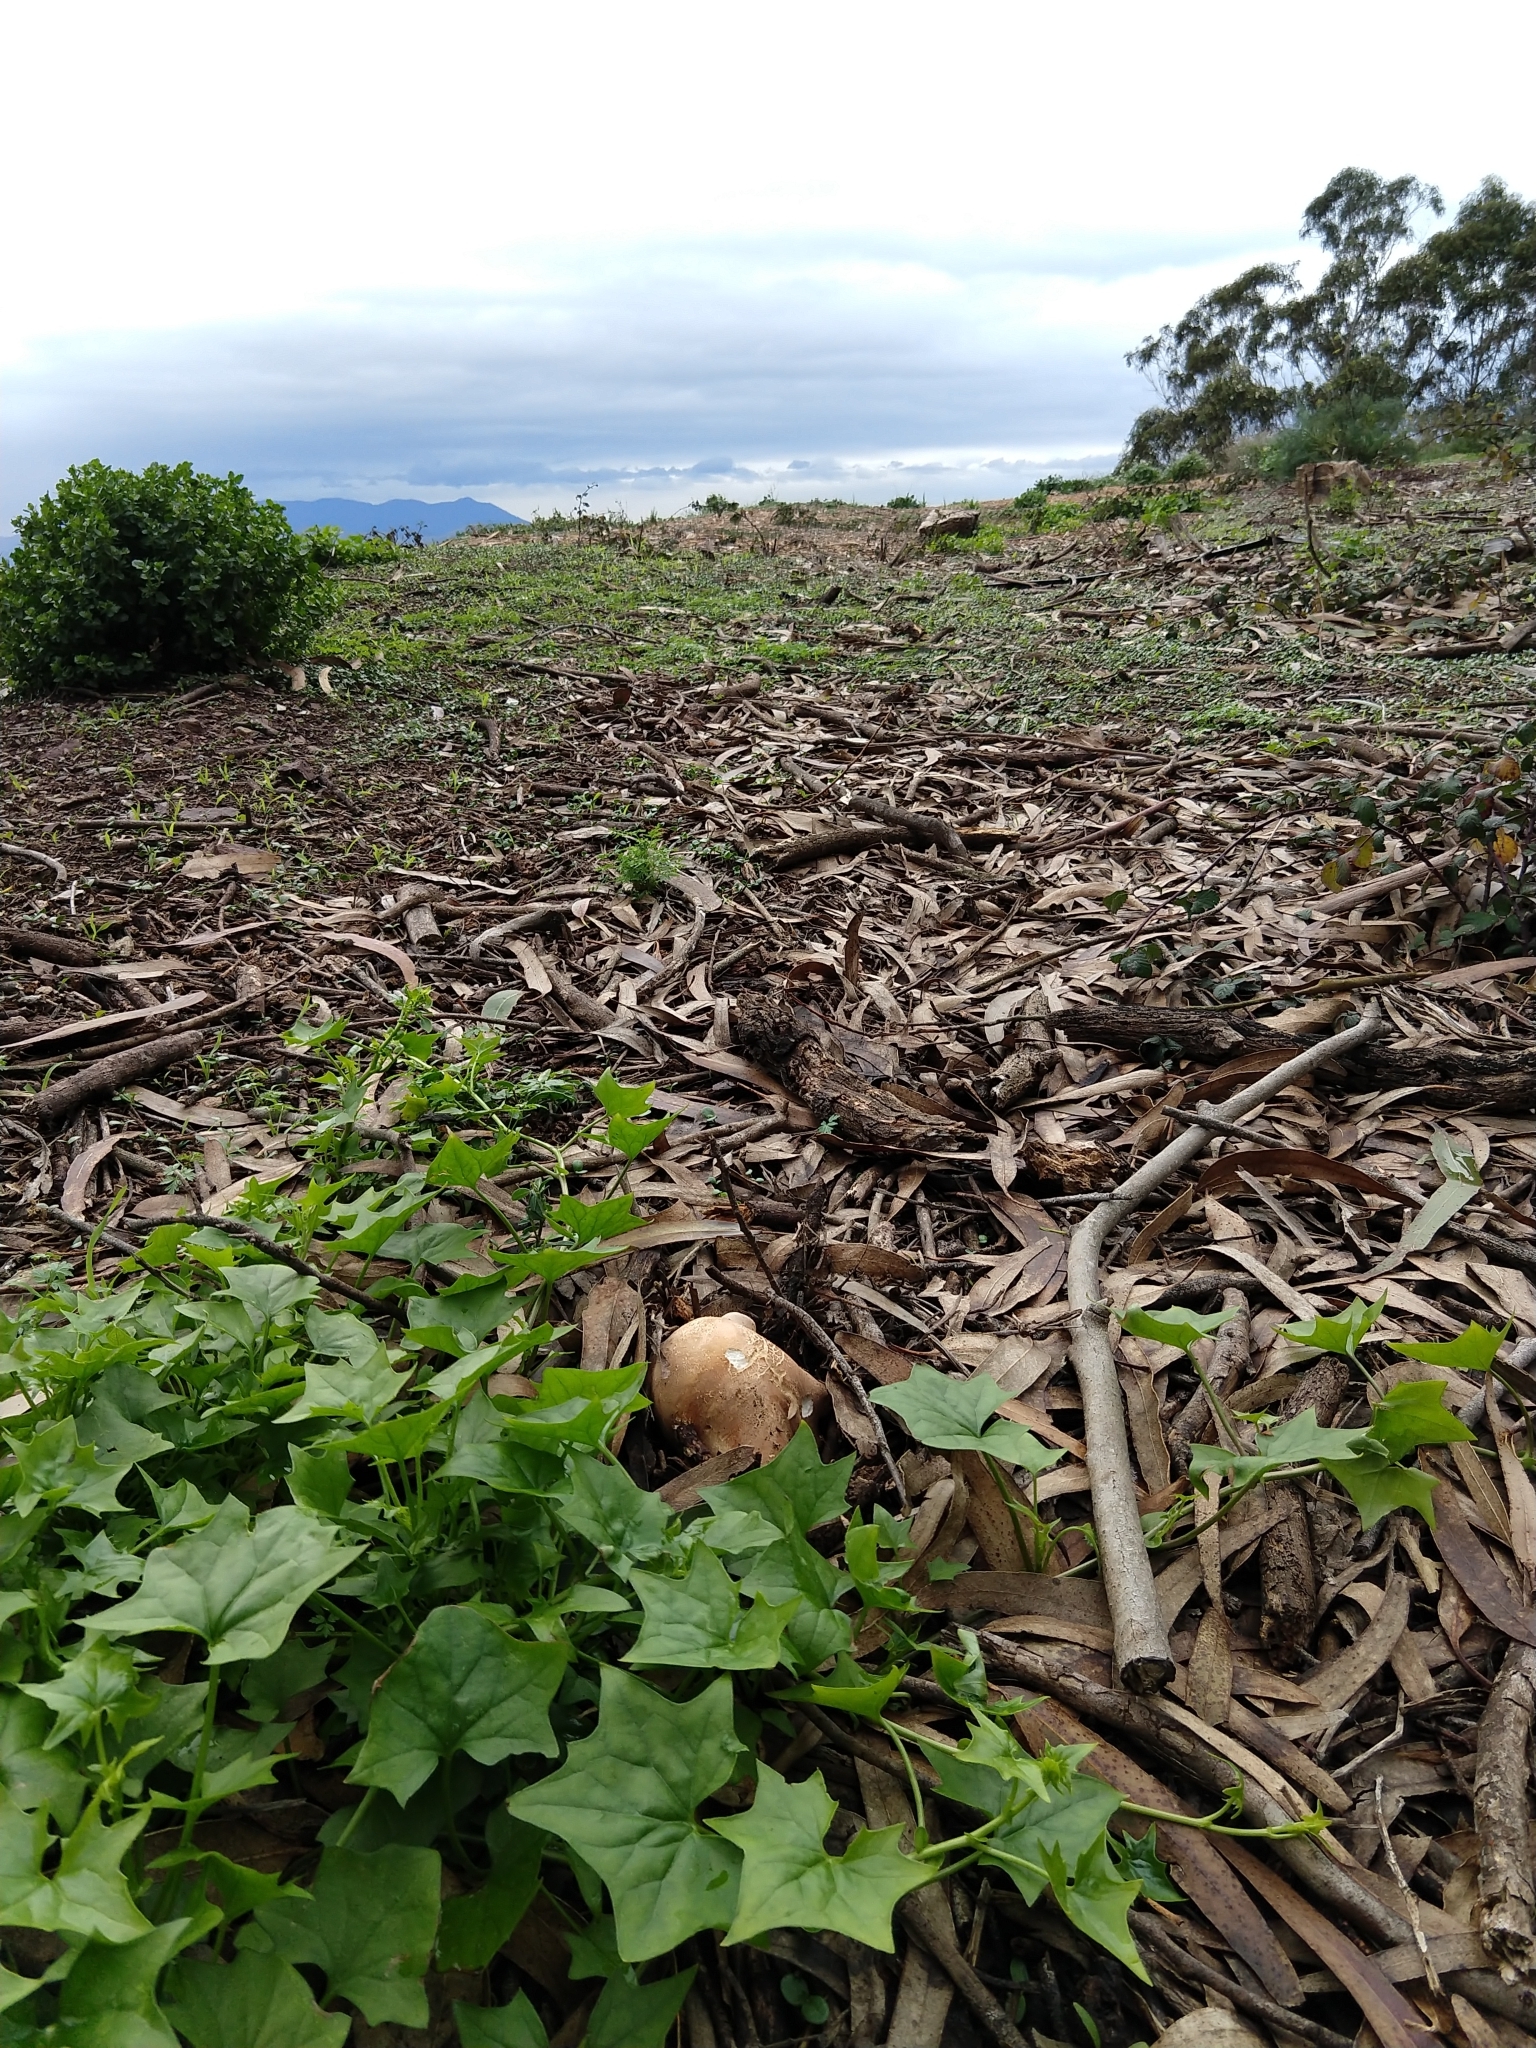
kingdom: Fungi
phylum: Basidiomycota
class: Agaricomycetes
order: Agaricales
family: Tricholomataceae
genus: Leucopaxillus
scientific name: Leucopaxillus gentianeus
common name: Bitter funnel
